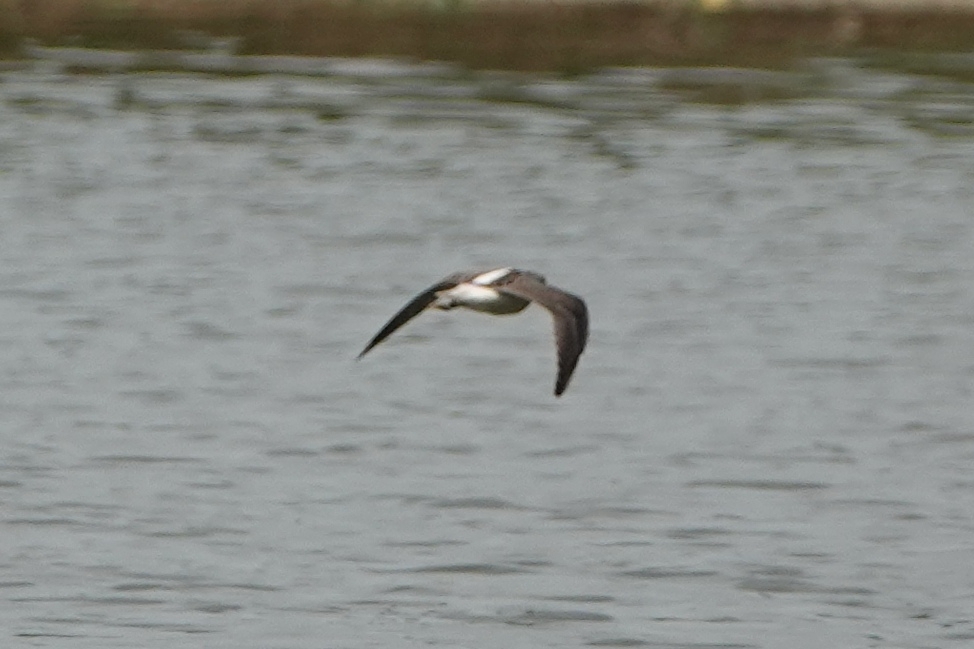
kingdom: Animalia
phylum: Chordata
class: Aves
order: Charadriiformes
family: Scolopacidae
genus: Tringa
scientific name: Tringa nebularia
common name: Common greenshank
